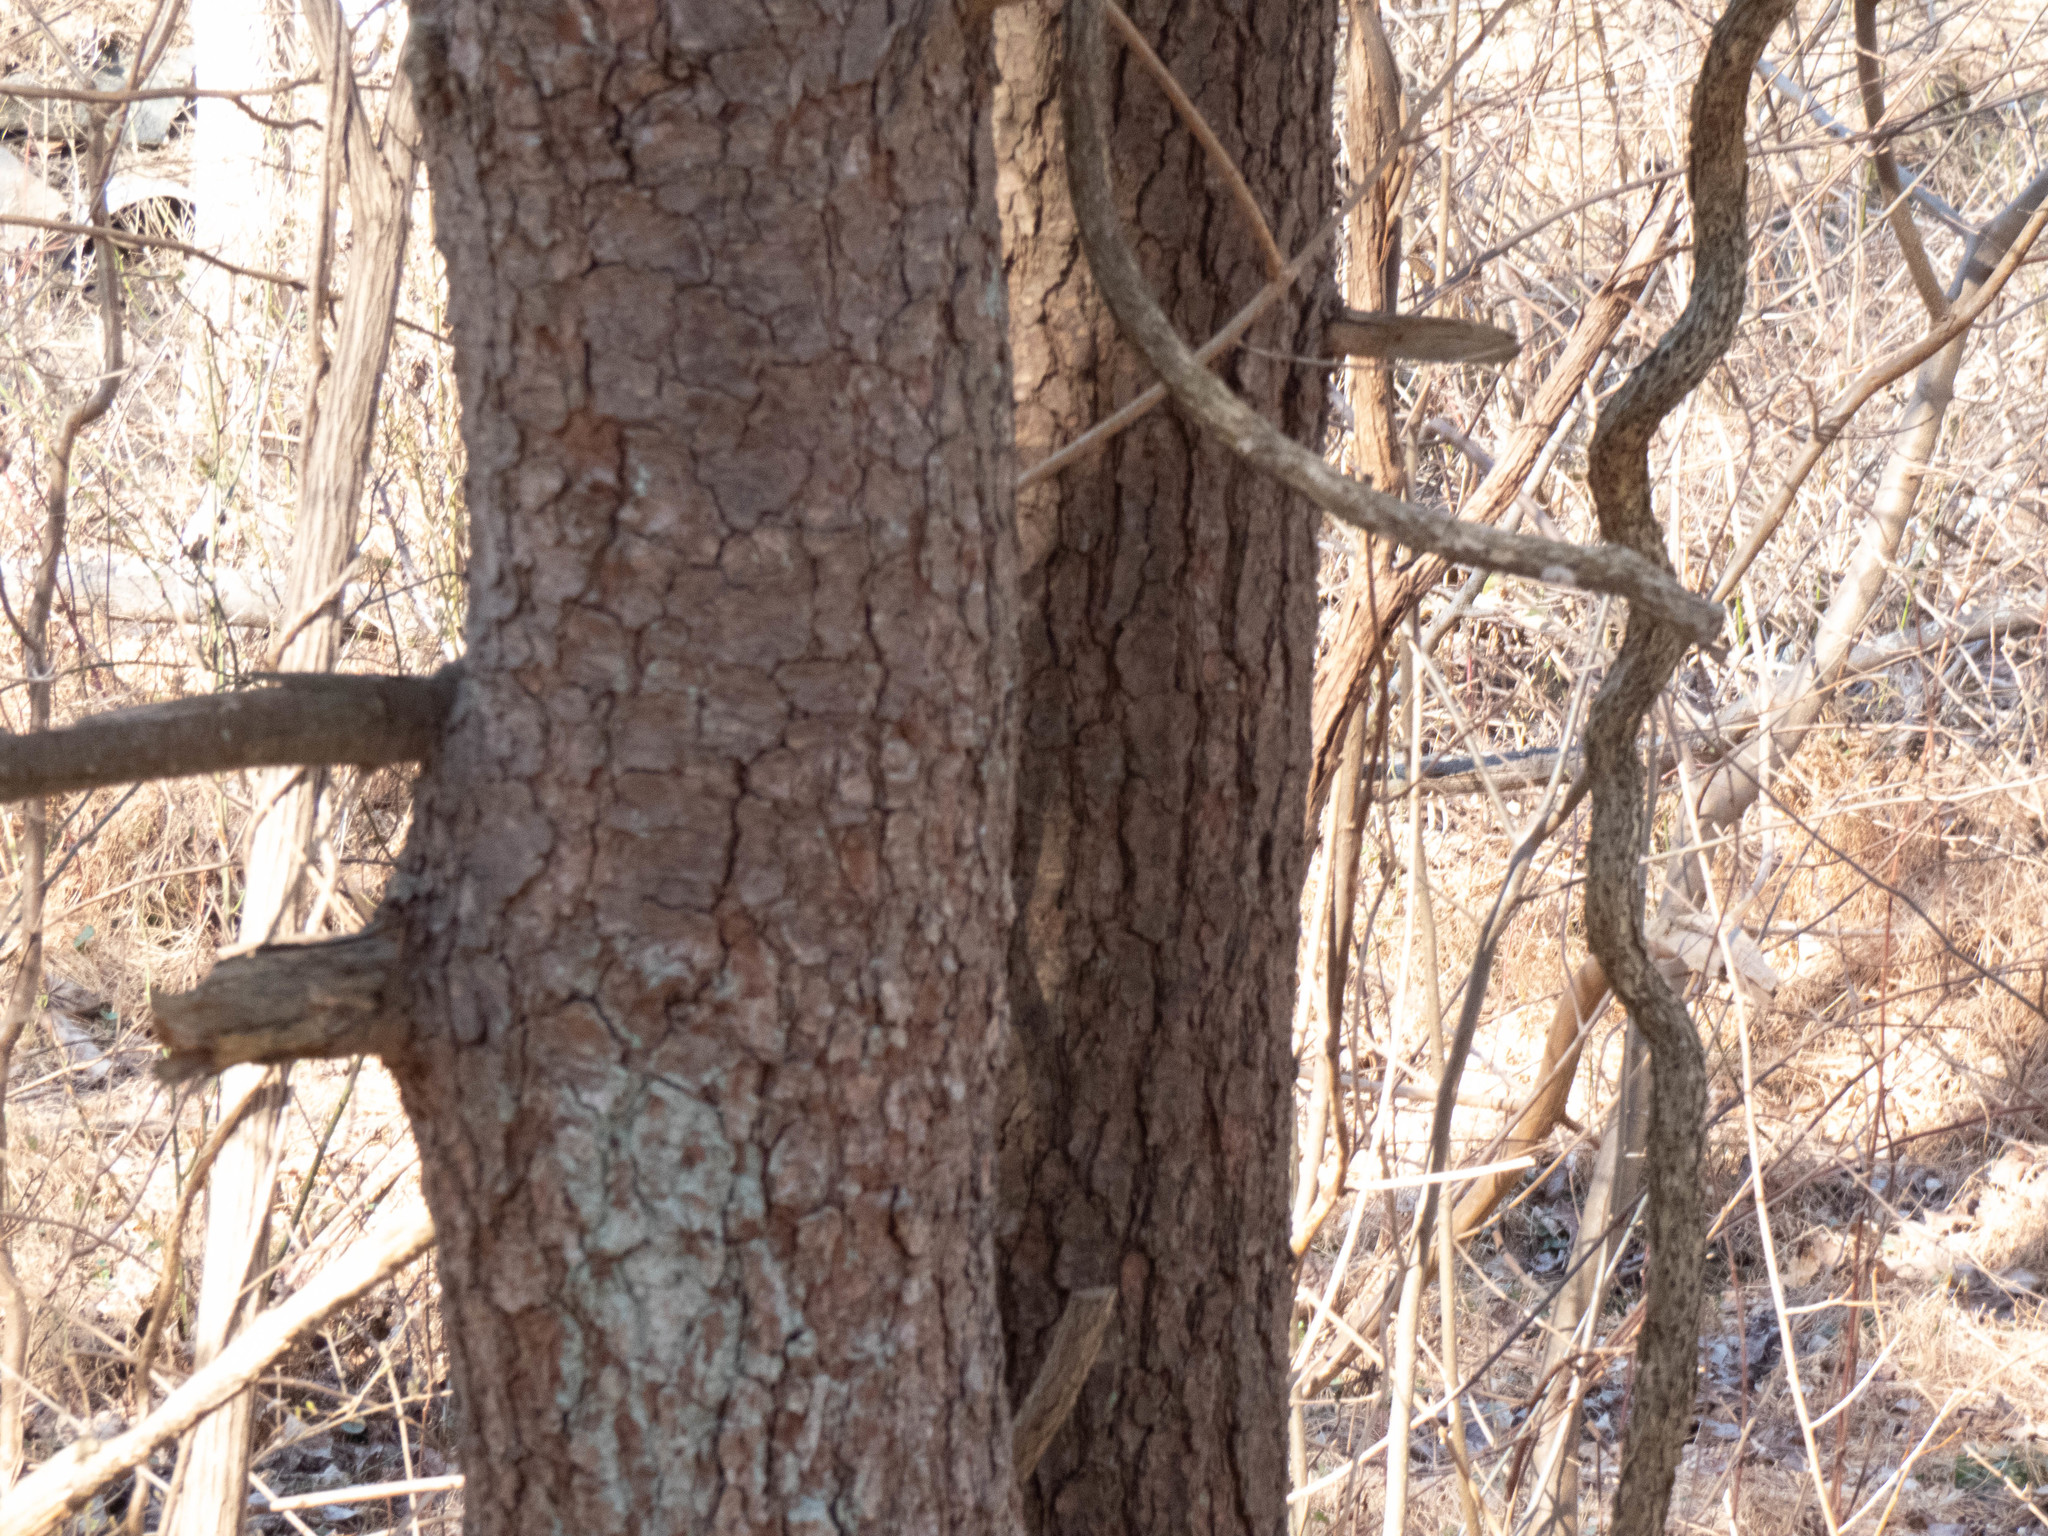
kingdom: Plantae
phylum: Tracheophyta
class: Pinopsida
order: Pinales
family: Pinaceae
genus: Pinus
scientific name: Pinus strobus
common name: Weymouth pine
